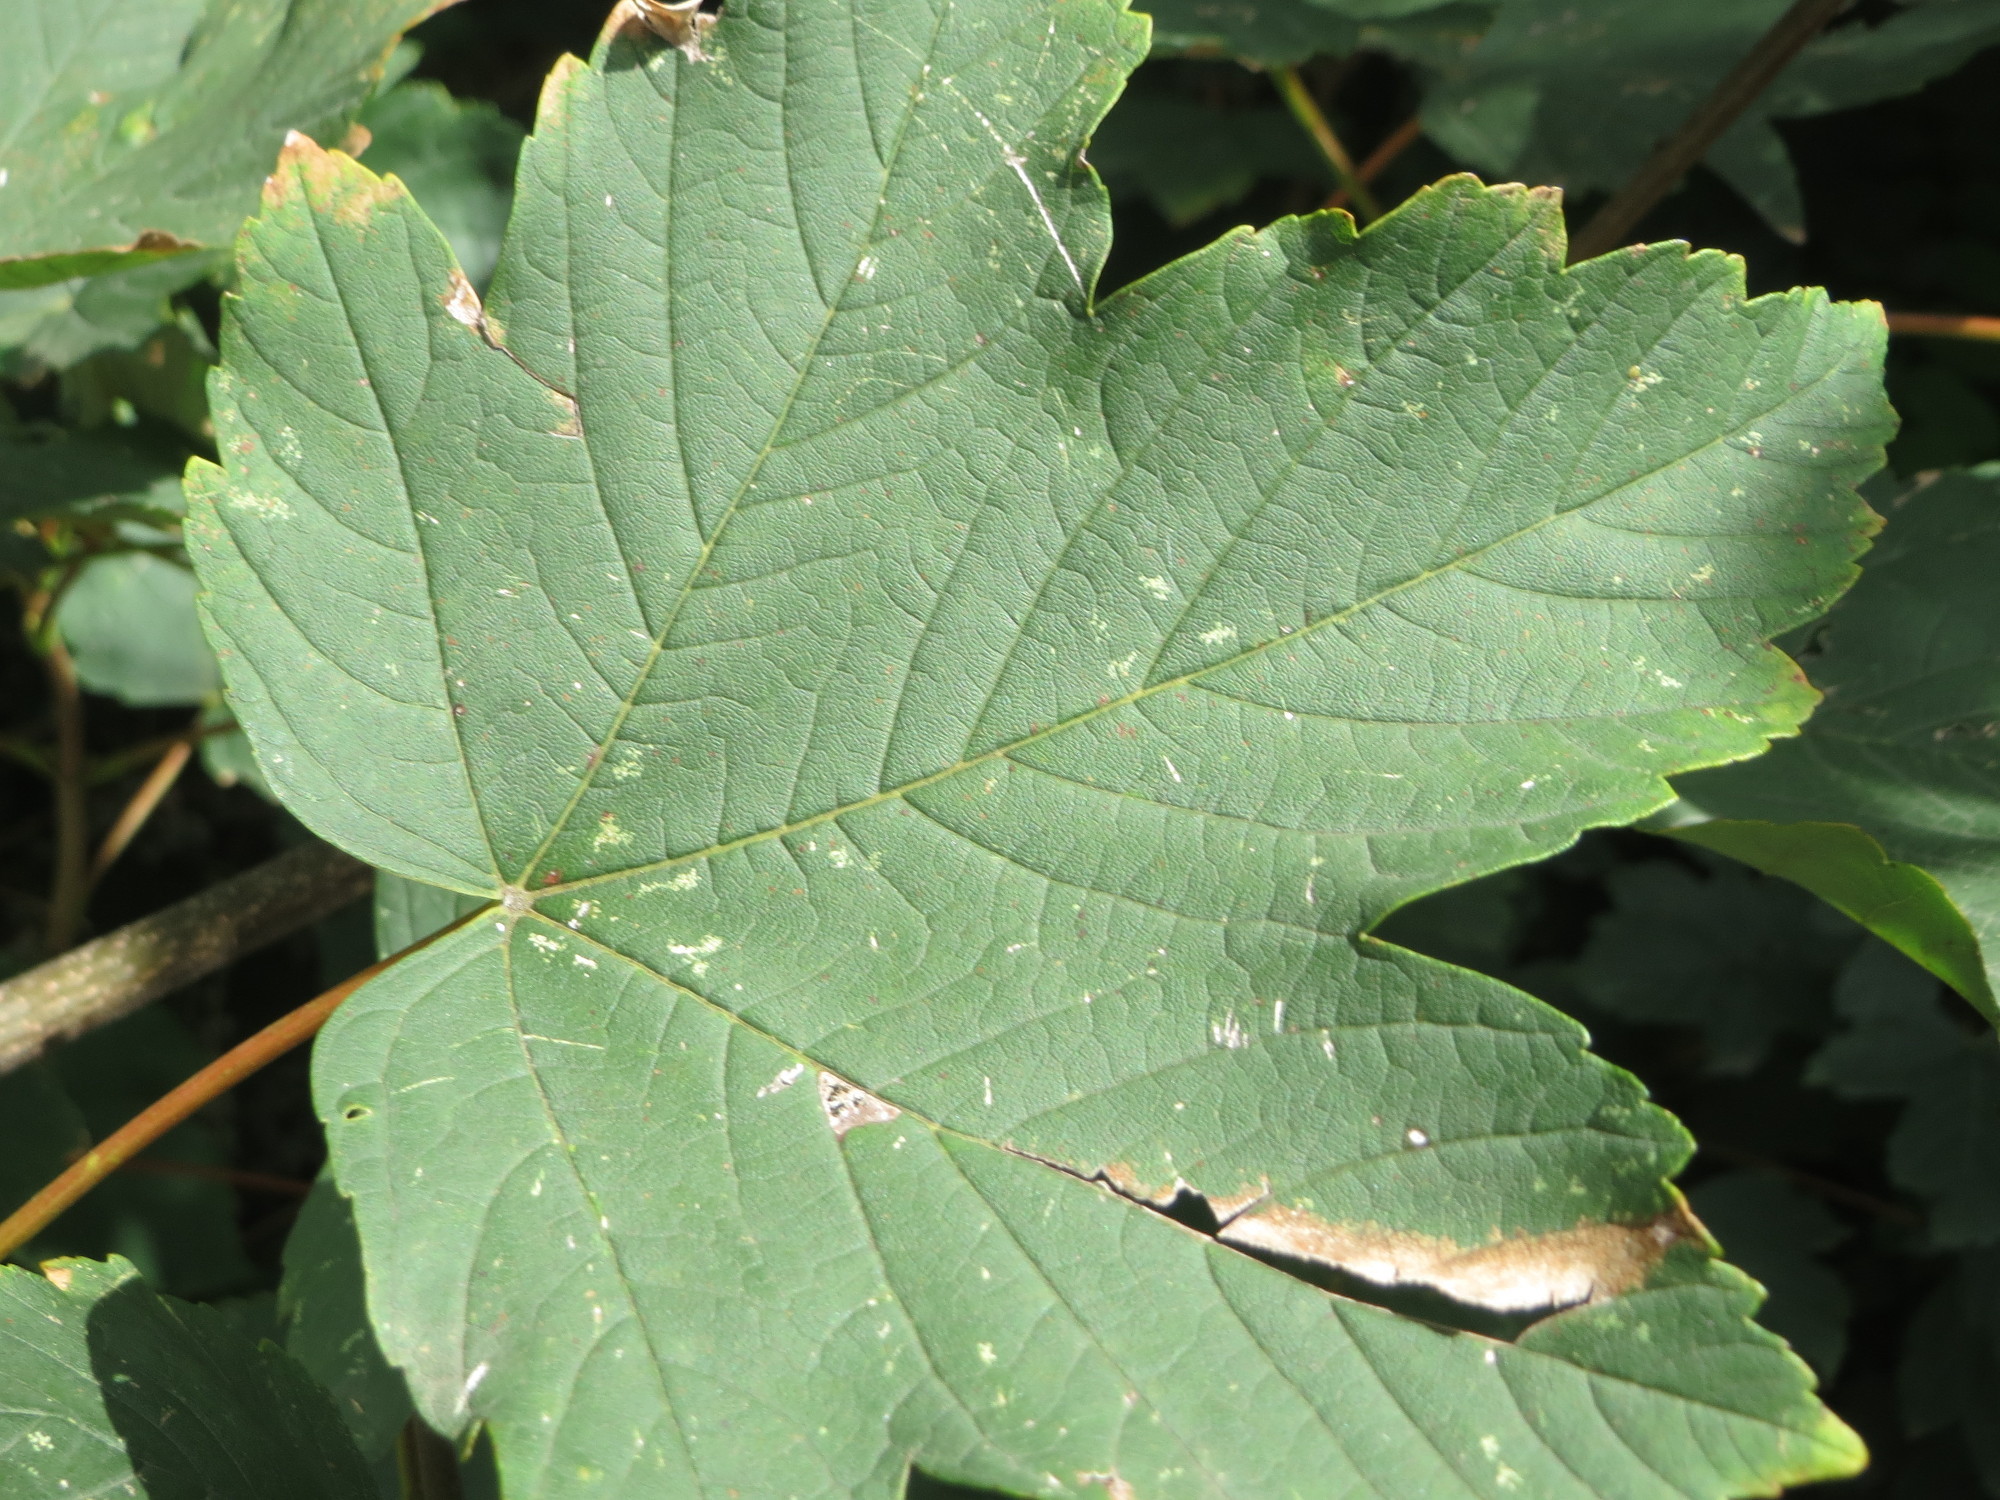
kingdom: Plantae
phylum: Tracheophyta
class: Magnoliopsida
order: Sapindales
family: Sapindaceae
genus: Acer
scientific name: Acer pseudoplatanus
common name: Sycamore
